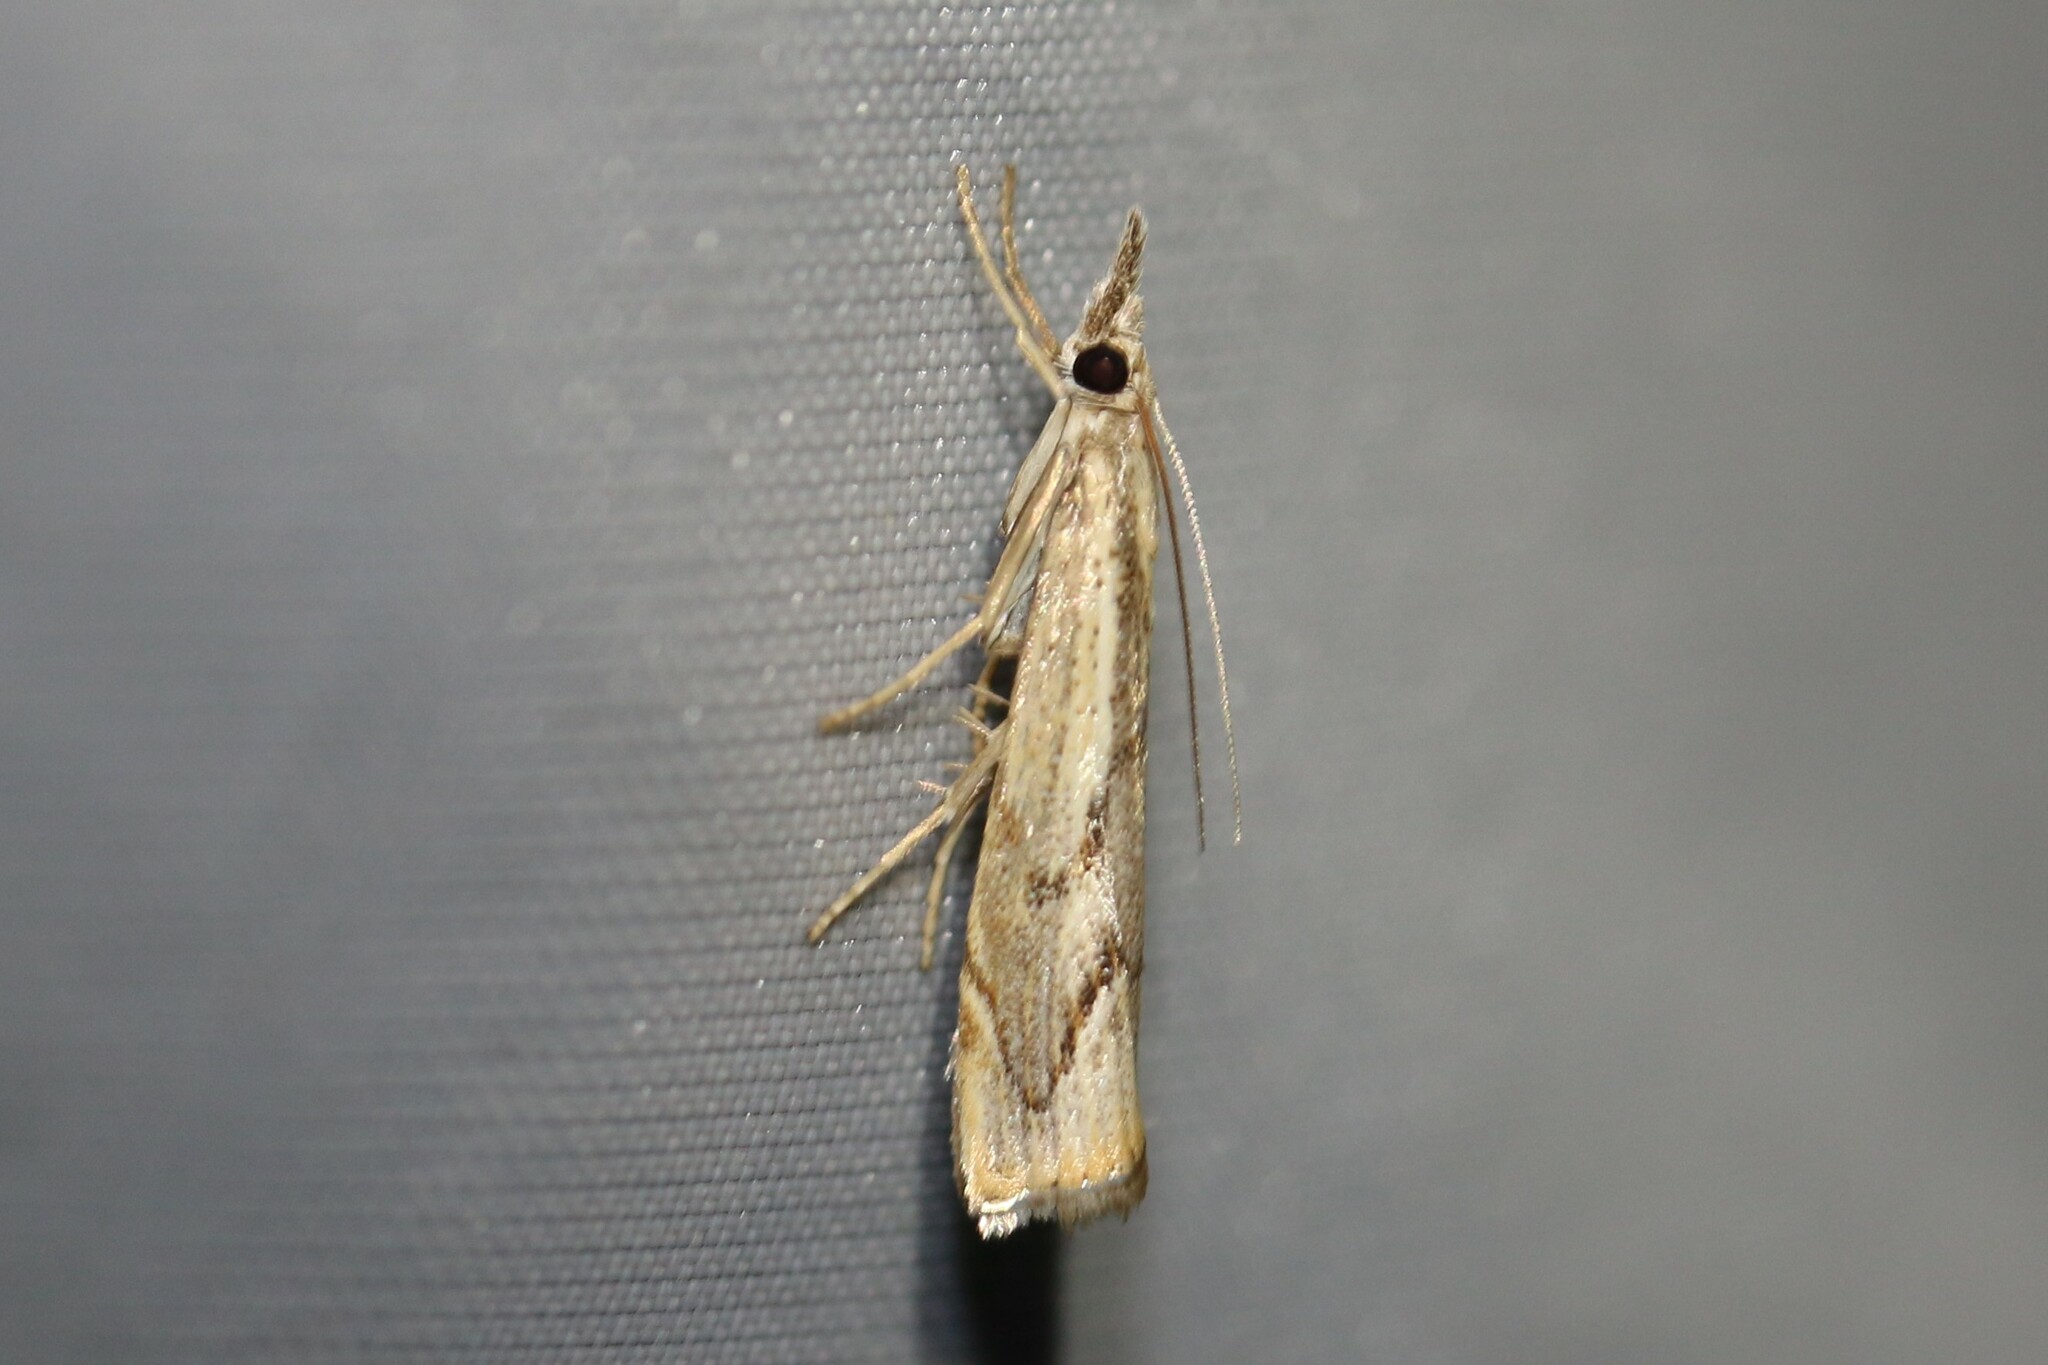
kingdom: Animalia
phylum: Arthropoda
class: Insecta
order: Lepidoptera
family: Crambidae
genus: Agriphila
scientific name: Agriphila geniculea
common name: Elbow-stripe grass-veneer
